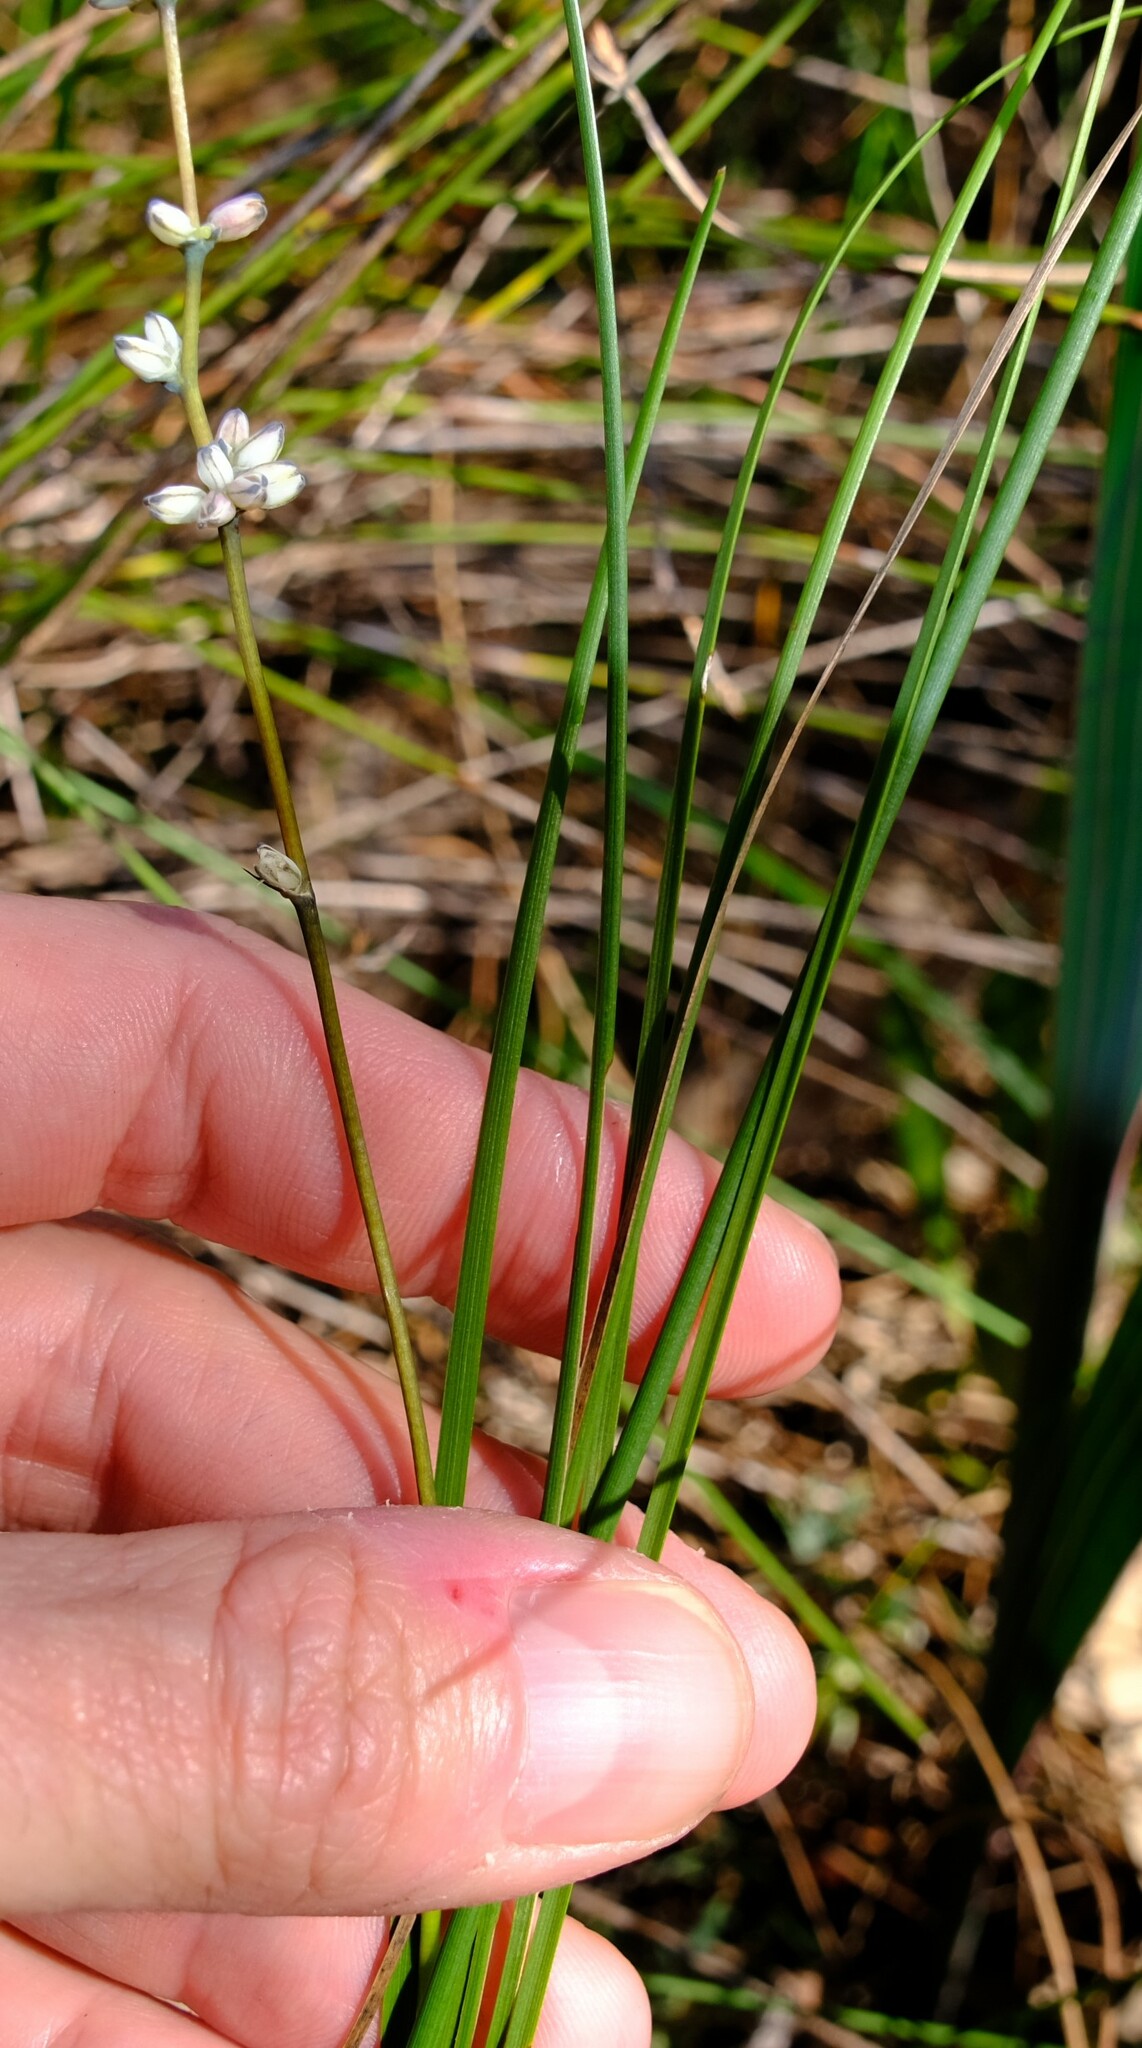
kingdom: Plantae
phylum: Tracheophyta
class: Liliopsida
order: Asparagales
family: Asparagaceae
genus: Lomandra
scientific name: Lomandra nigricans
